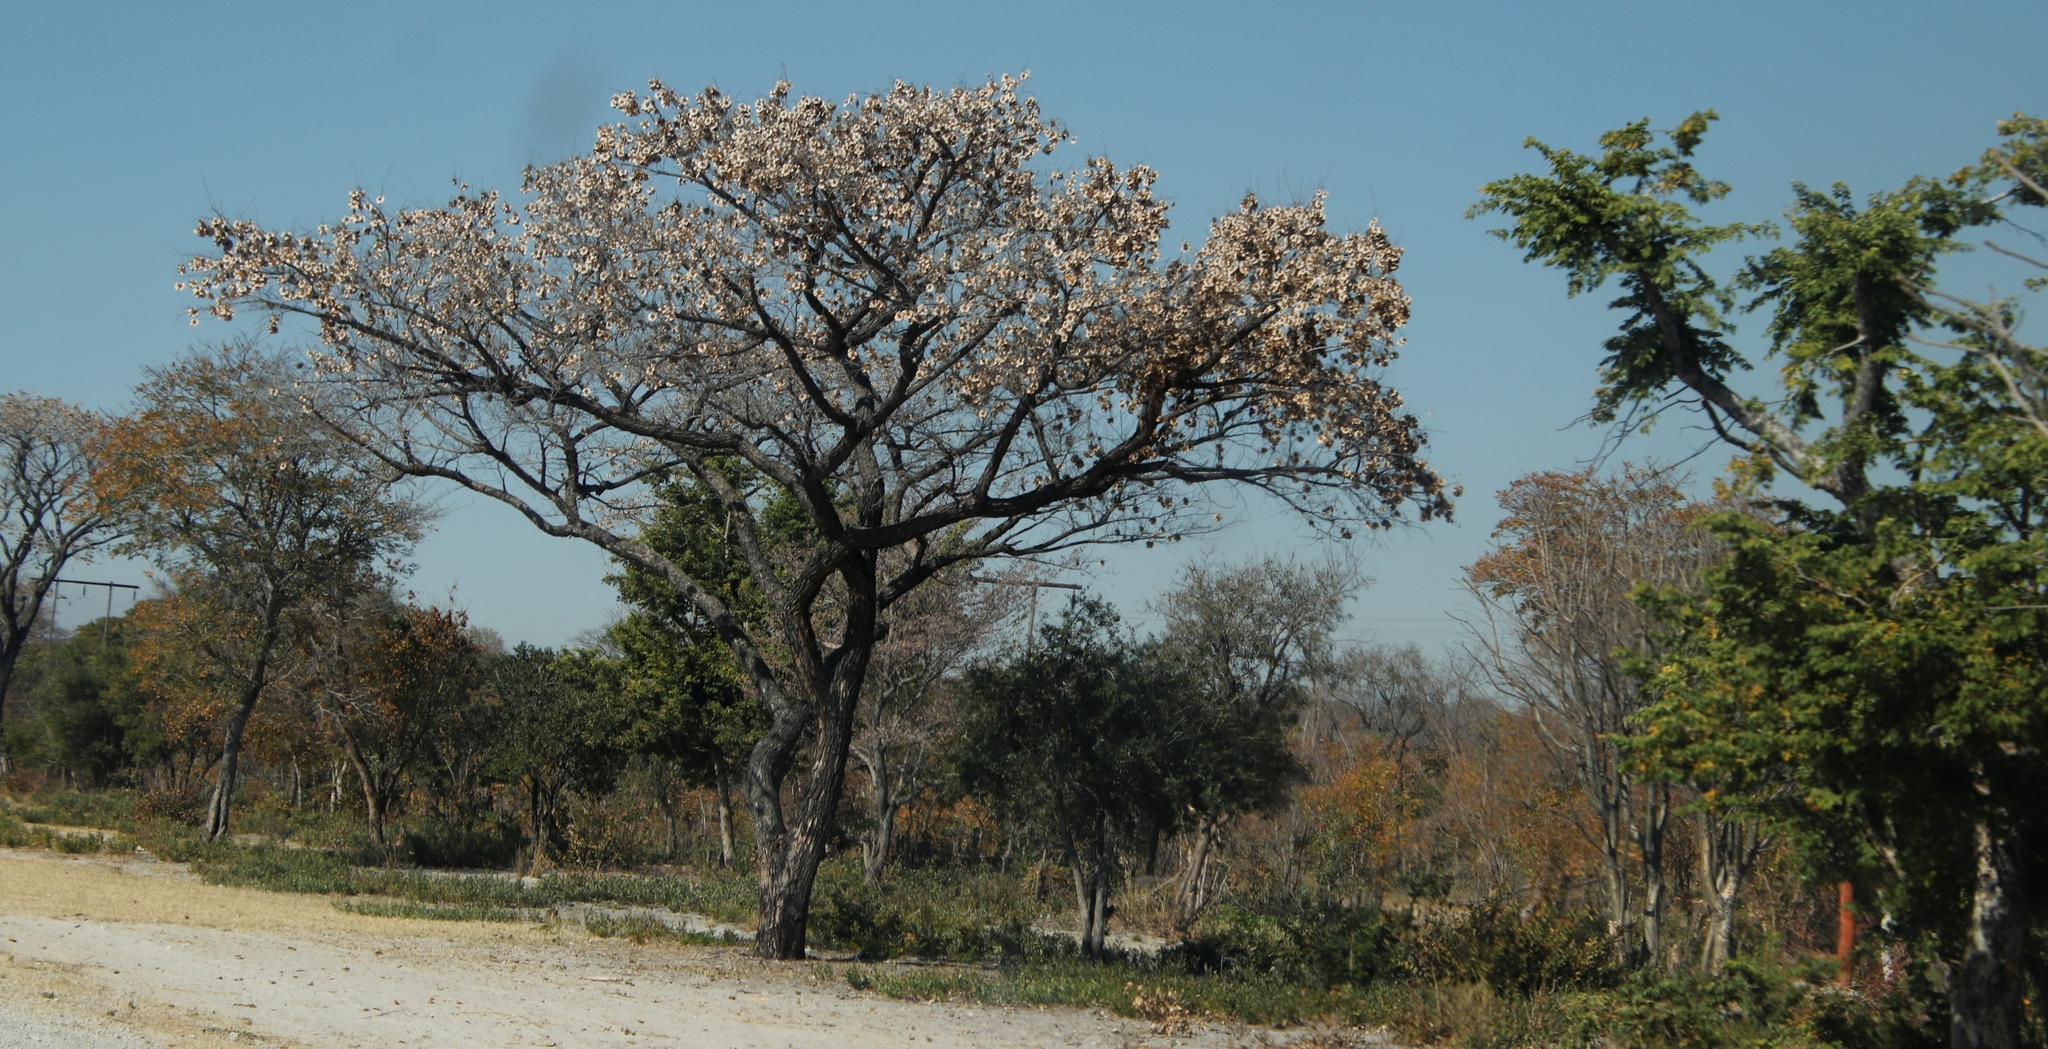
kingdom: Plantae
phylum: Tracheophyta
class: Magnoliopsida
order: Fabales
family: Fabaceae
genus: Pterocarpus
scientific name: Pterocarpus angolensis
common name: Bloodwood tree
